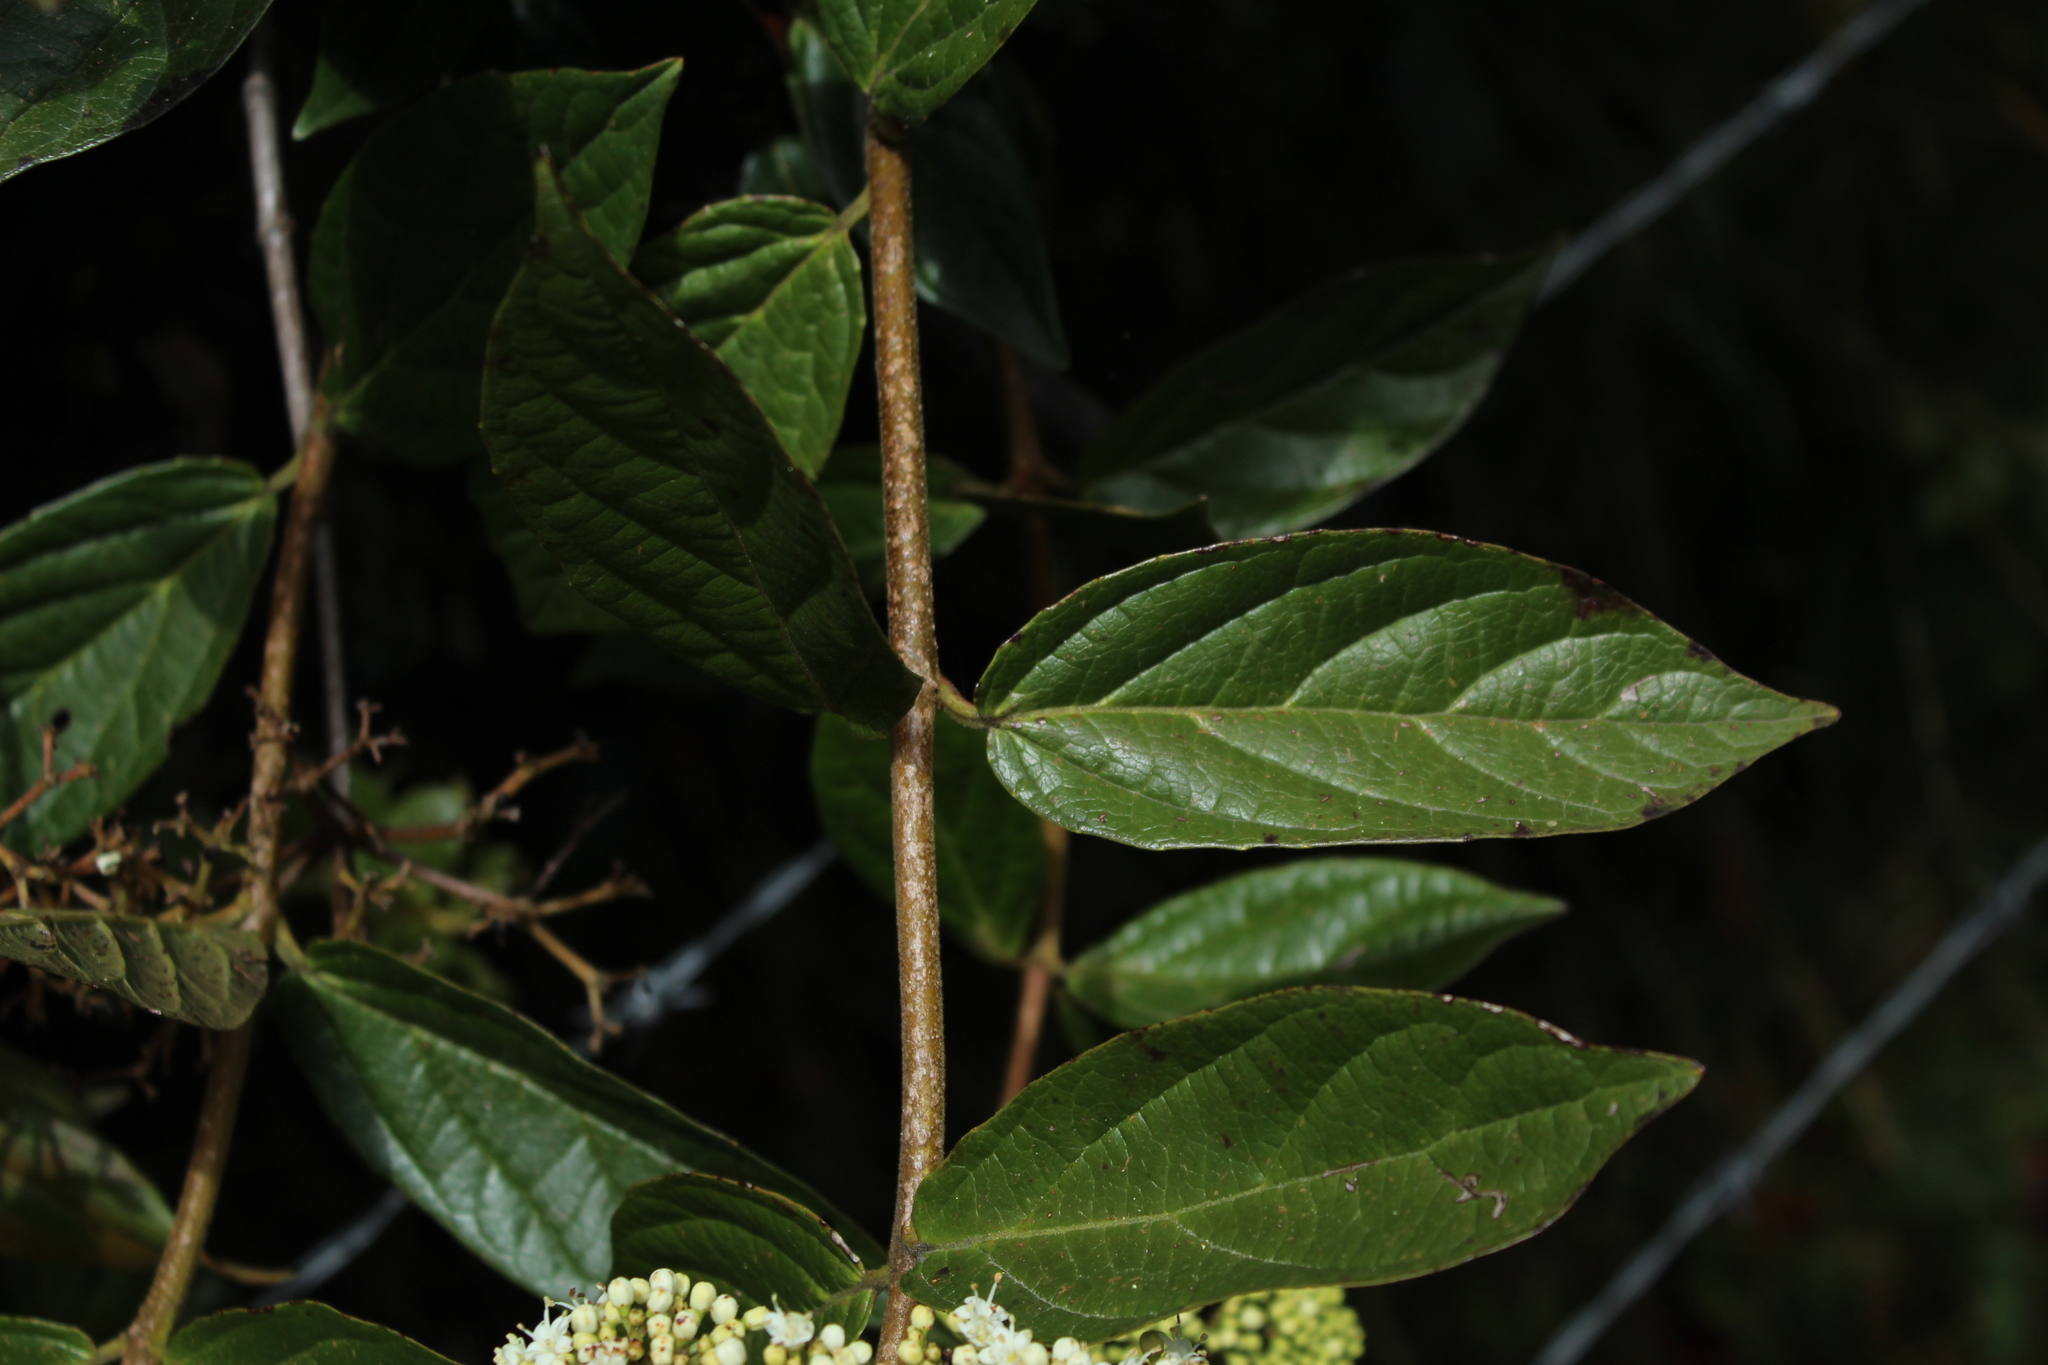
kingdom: Plantae
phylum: Tracheophyta
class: Magnoliopsida
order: Dipsacales
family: Viburnaceae
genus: Viburnum
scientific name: Viburnum triphyllum
